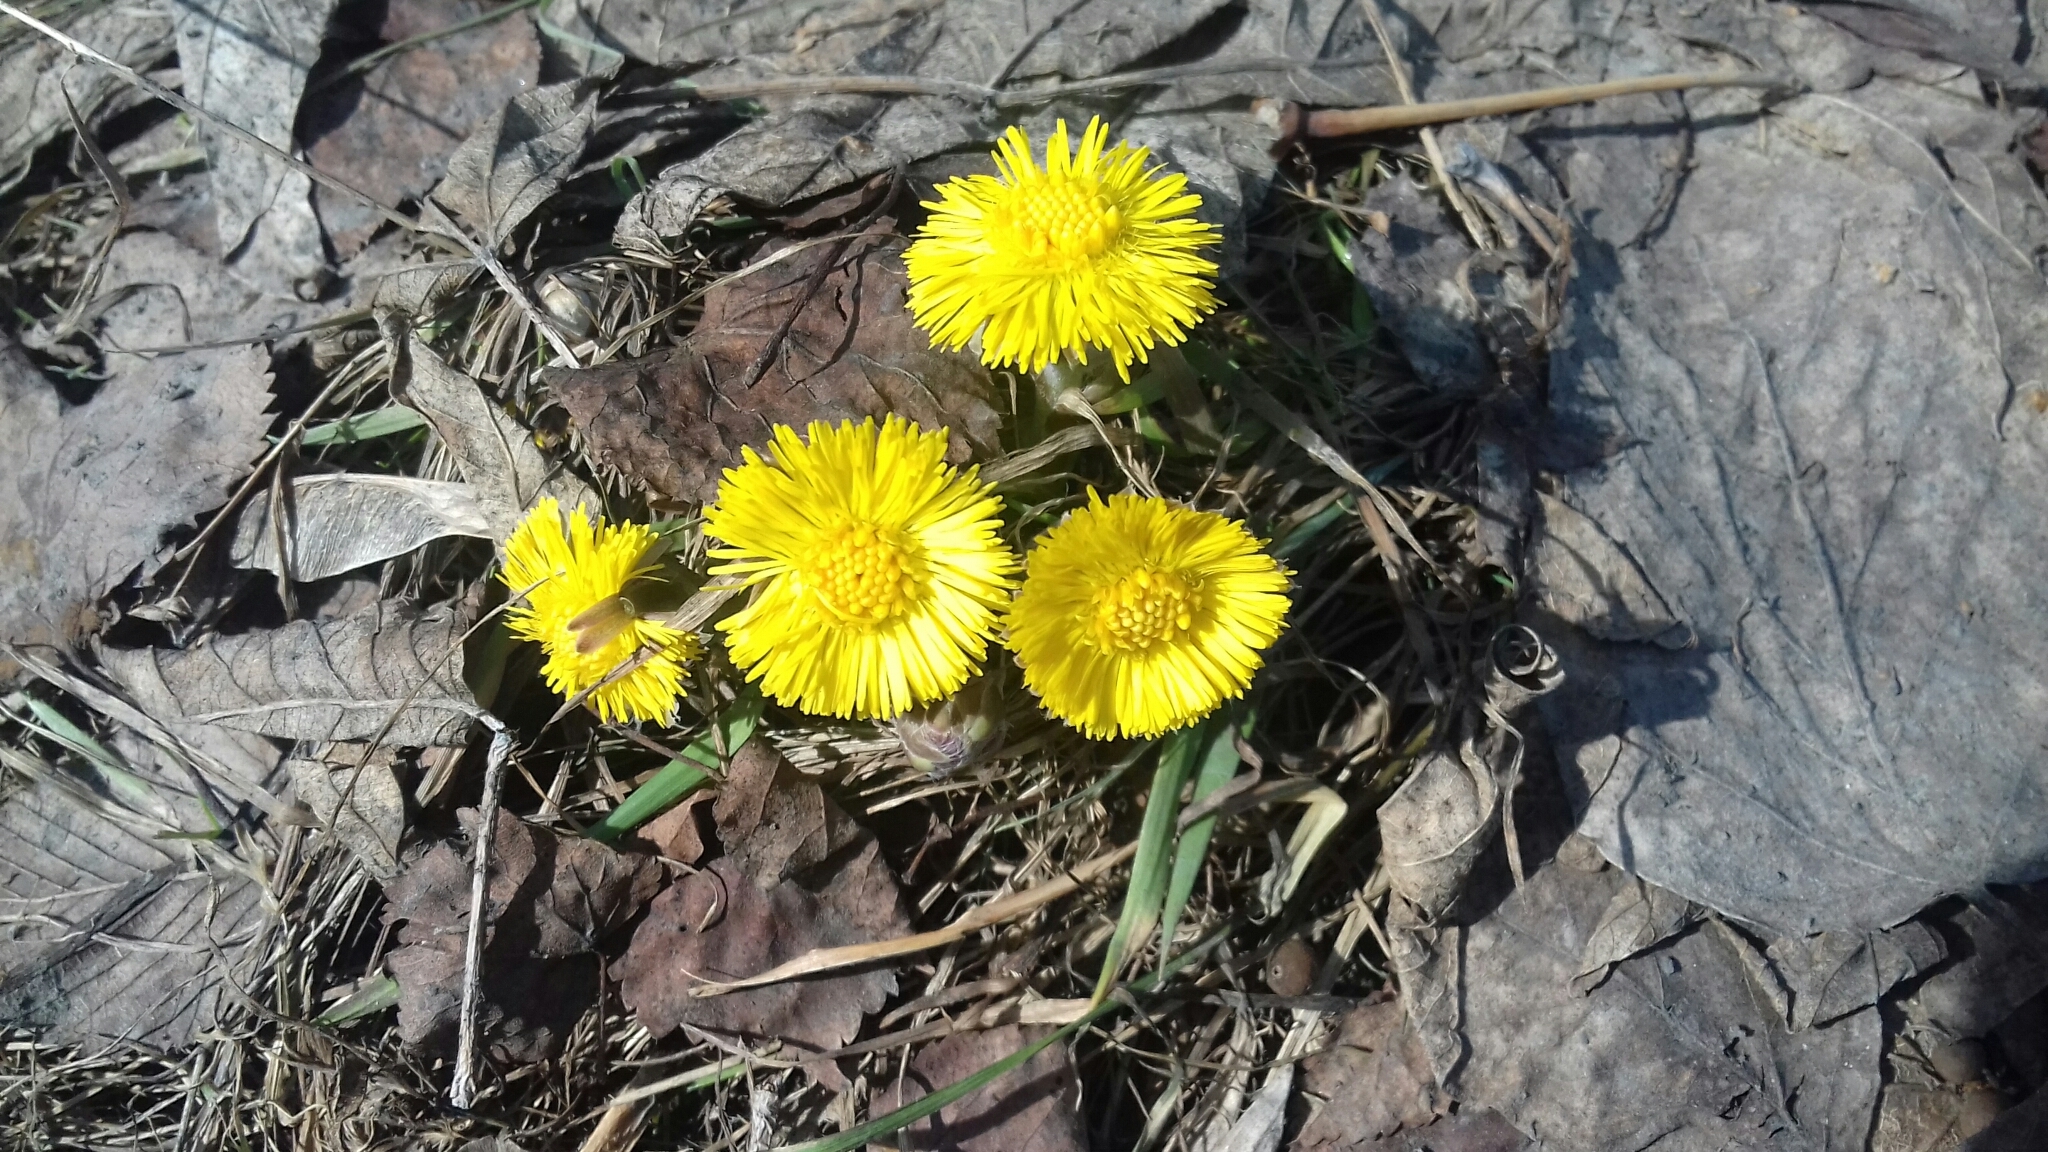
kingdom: Plantae
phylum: Tracheophyta
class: Magnoliopsida
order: Asterales
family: Asteraceae
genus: Tussilago
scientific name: Tussilago farfara
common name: Coltsfoot
